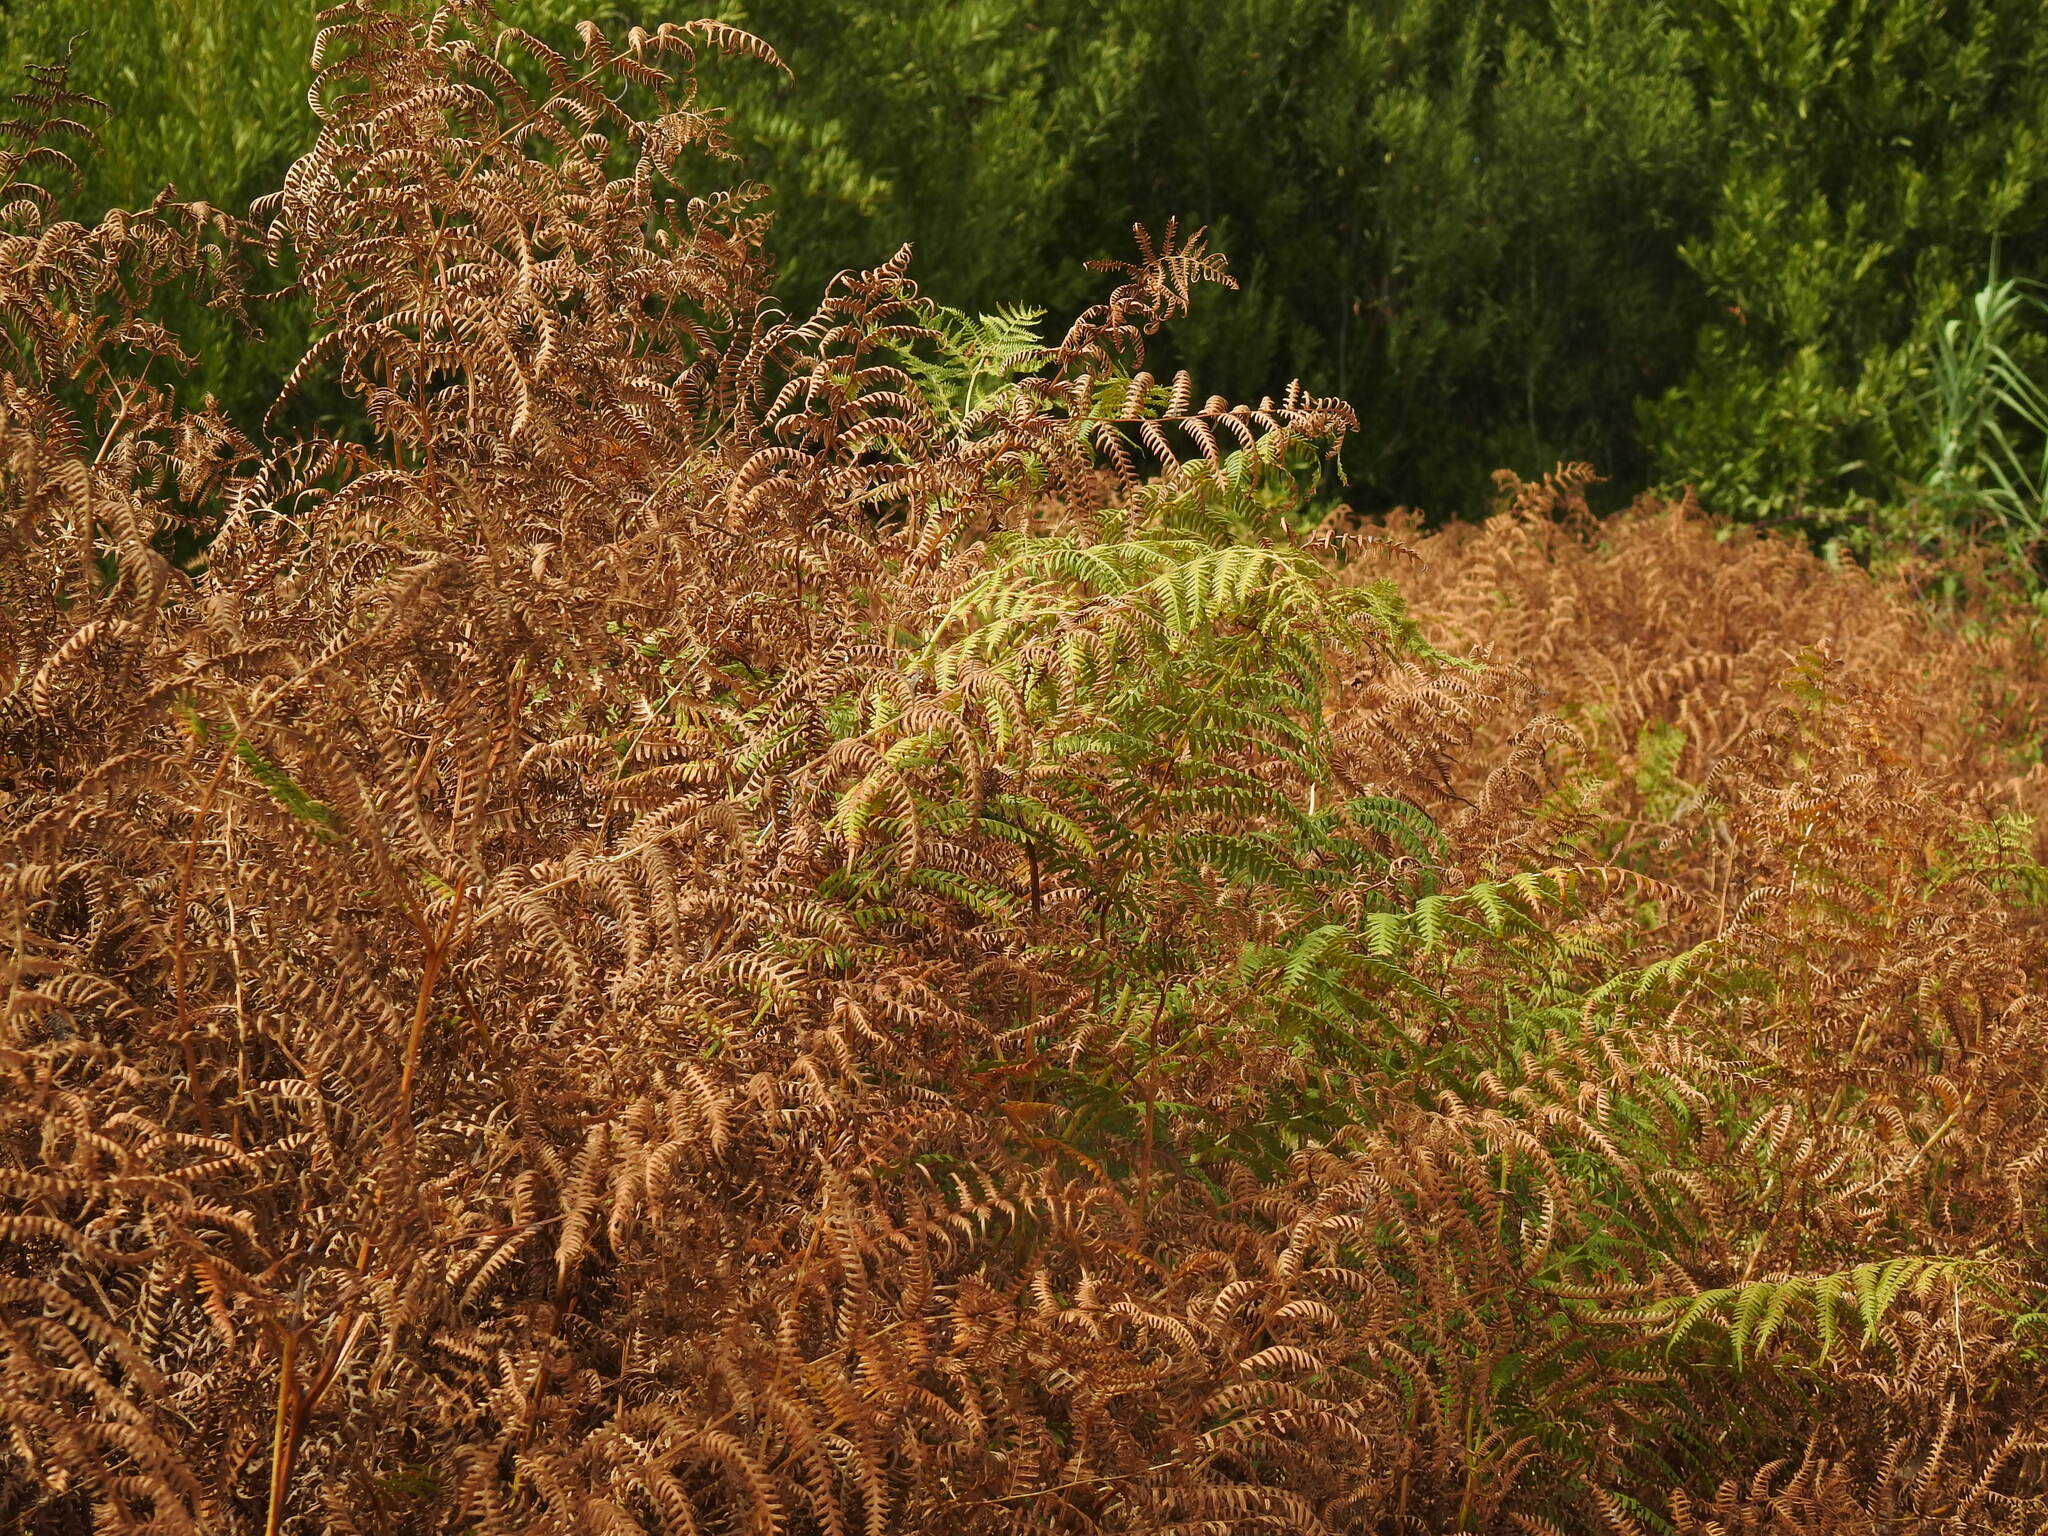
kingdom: Plantae
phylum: Tracheophyta
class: Polypodiopsida
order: Polypodiales
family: Dennstaedtiaceae
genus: Pteridium
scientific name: Pteridium aquilinum
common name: Bracken
